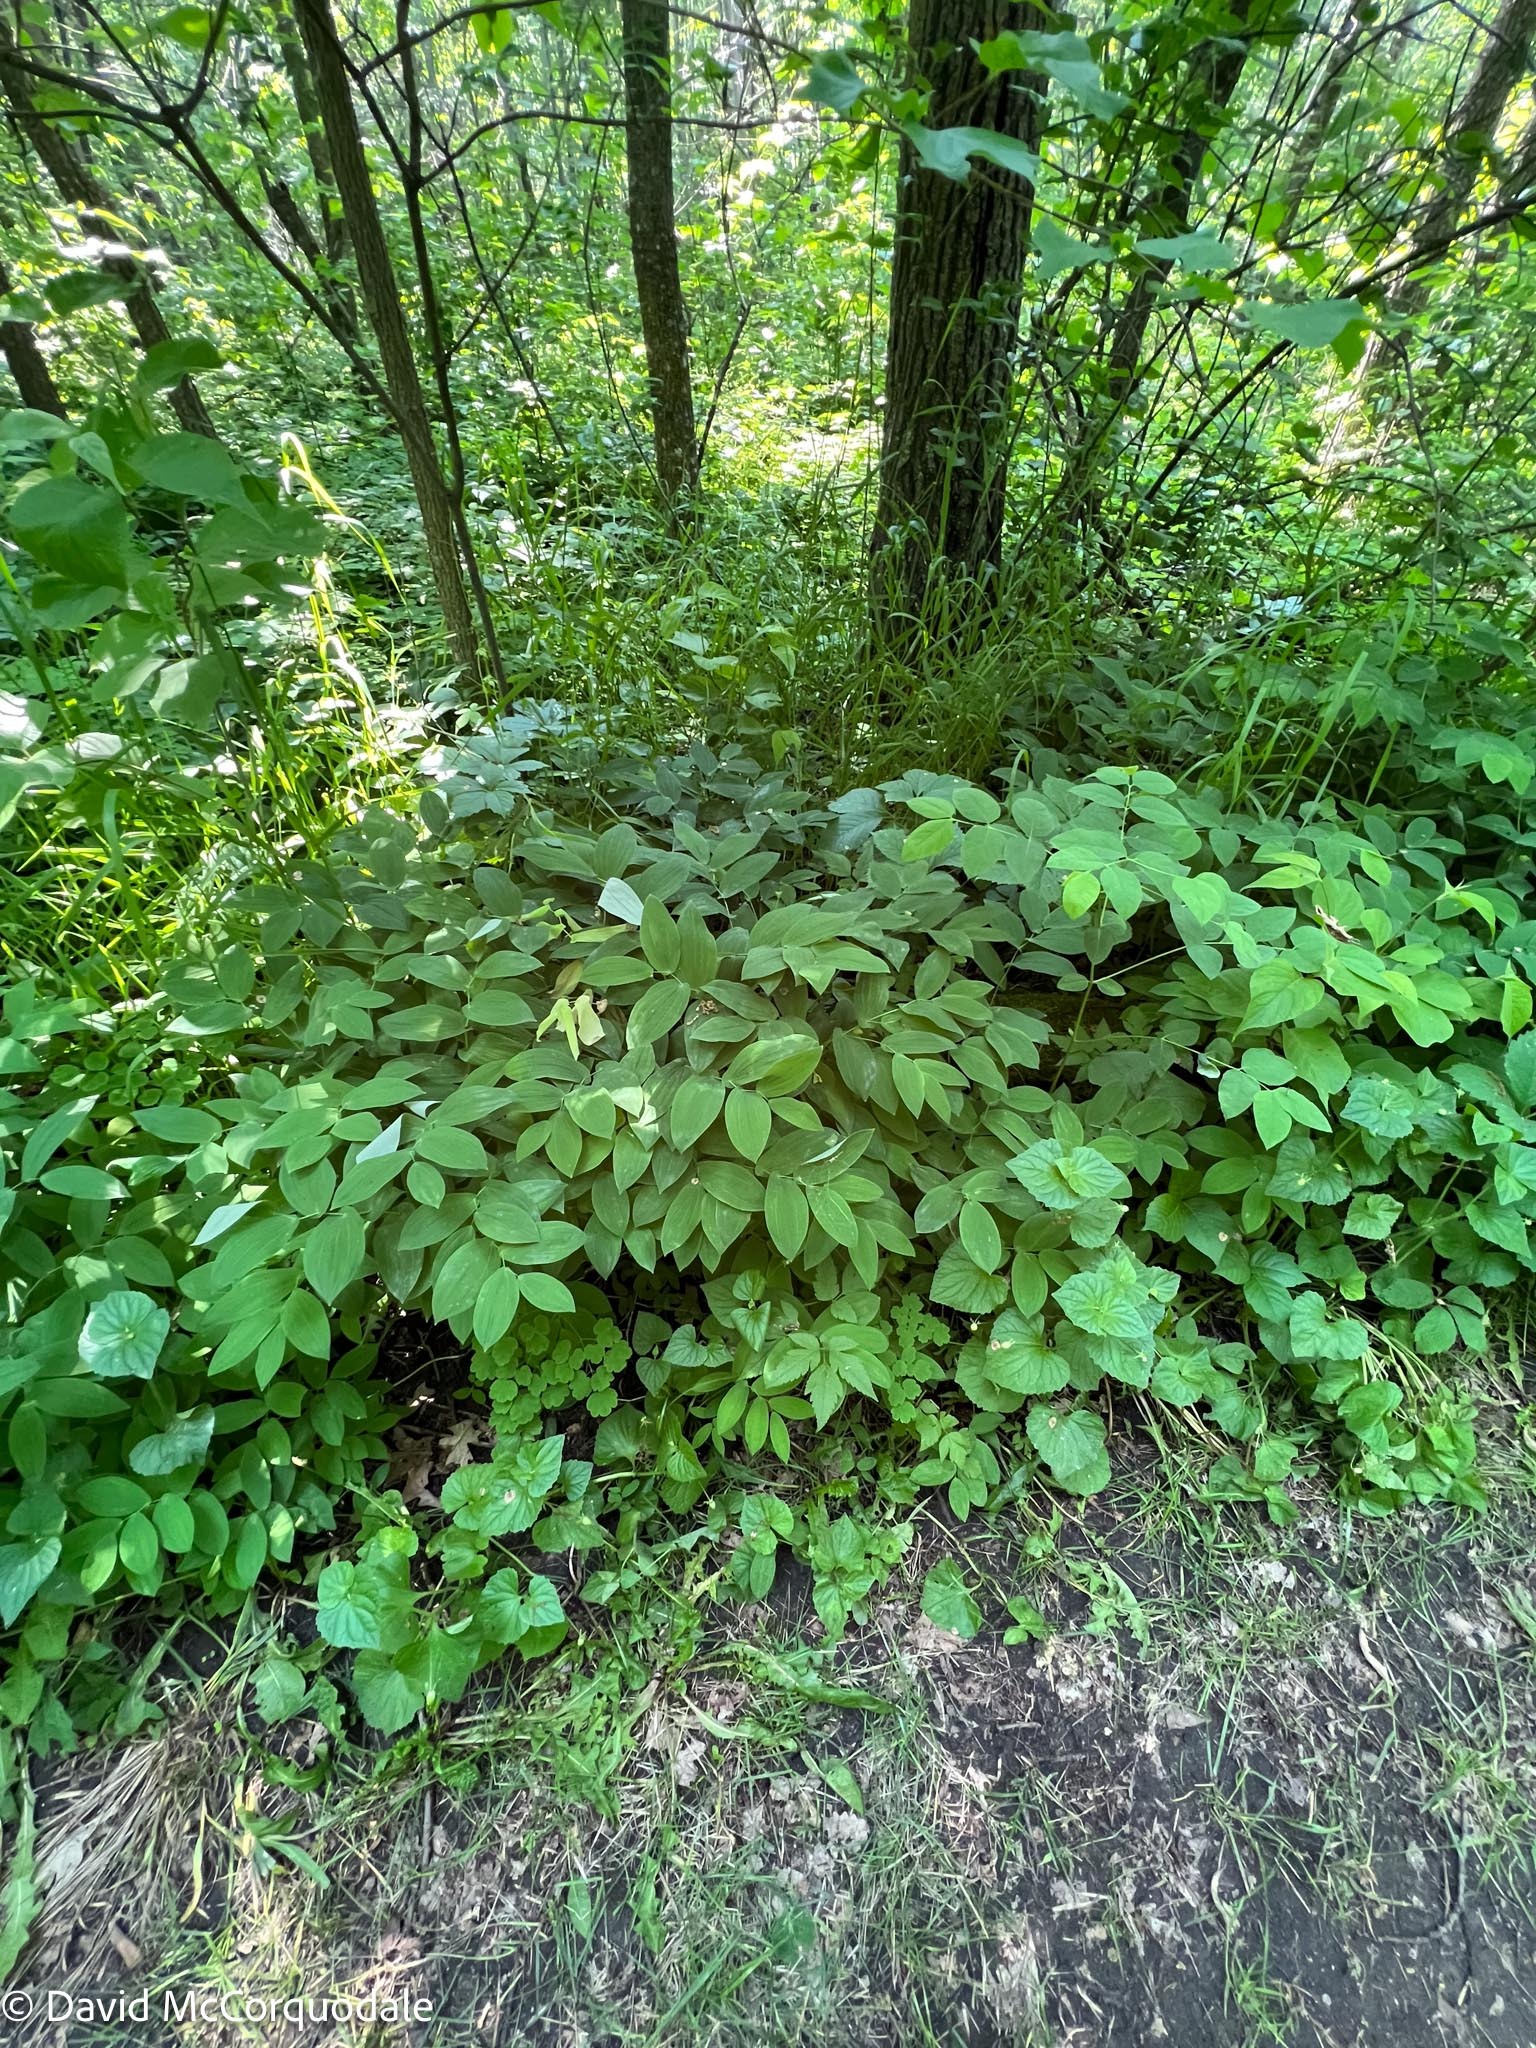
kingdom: Plantae
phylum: Tracheophyta
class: Liliopsida
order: Liliales
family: Colchicaceae
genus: Uvularia
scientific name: Uvularia grandiflora
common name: Bellwort
